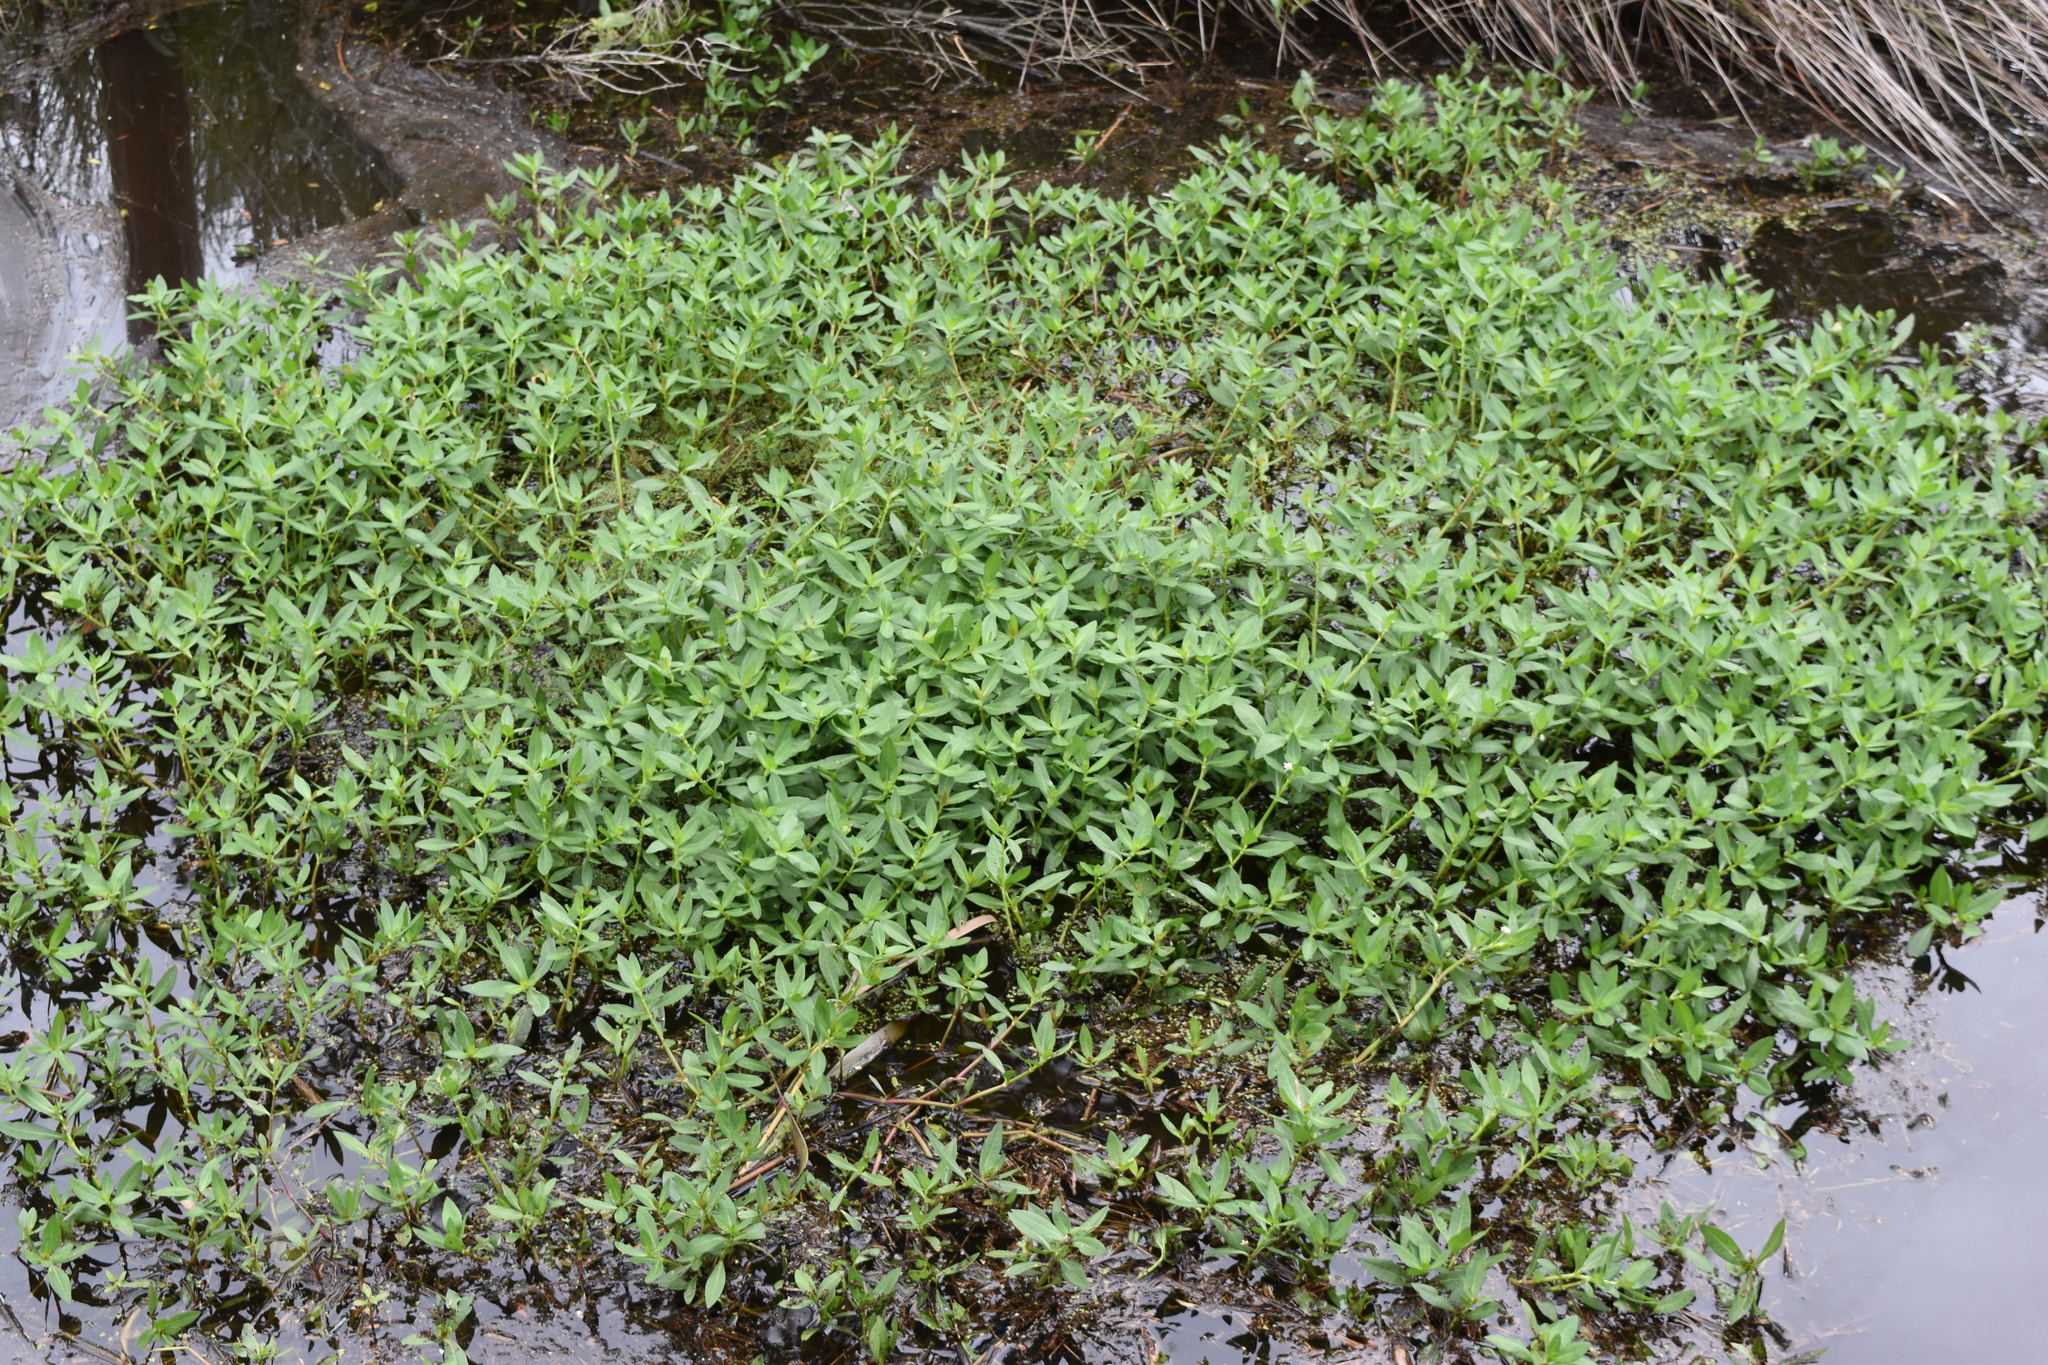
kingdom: Plantae
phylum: Tracheophyta
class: Magnoliopsida
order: Caryophyllales
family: Amaranthaceae
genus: Alternanthera
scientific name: Alternanthera philoxeroides
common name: Alligatorweed
